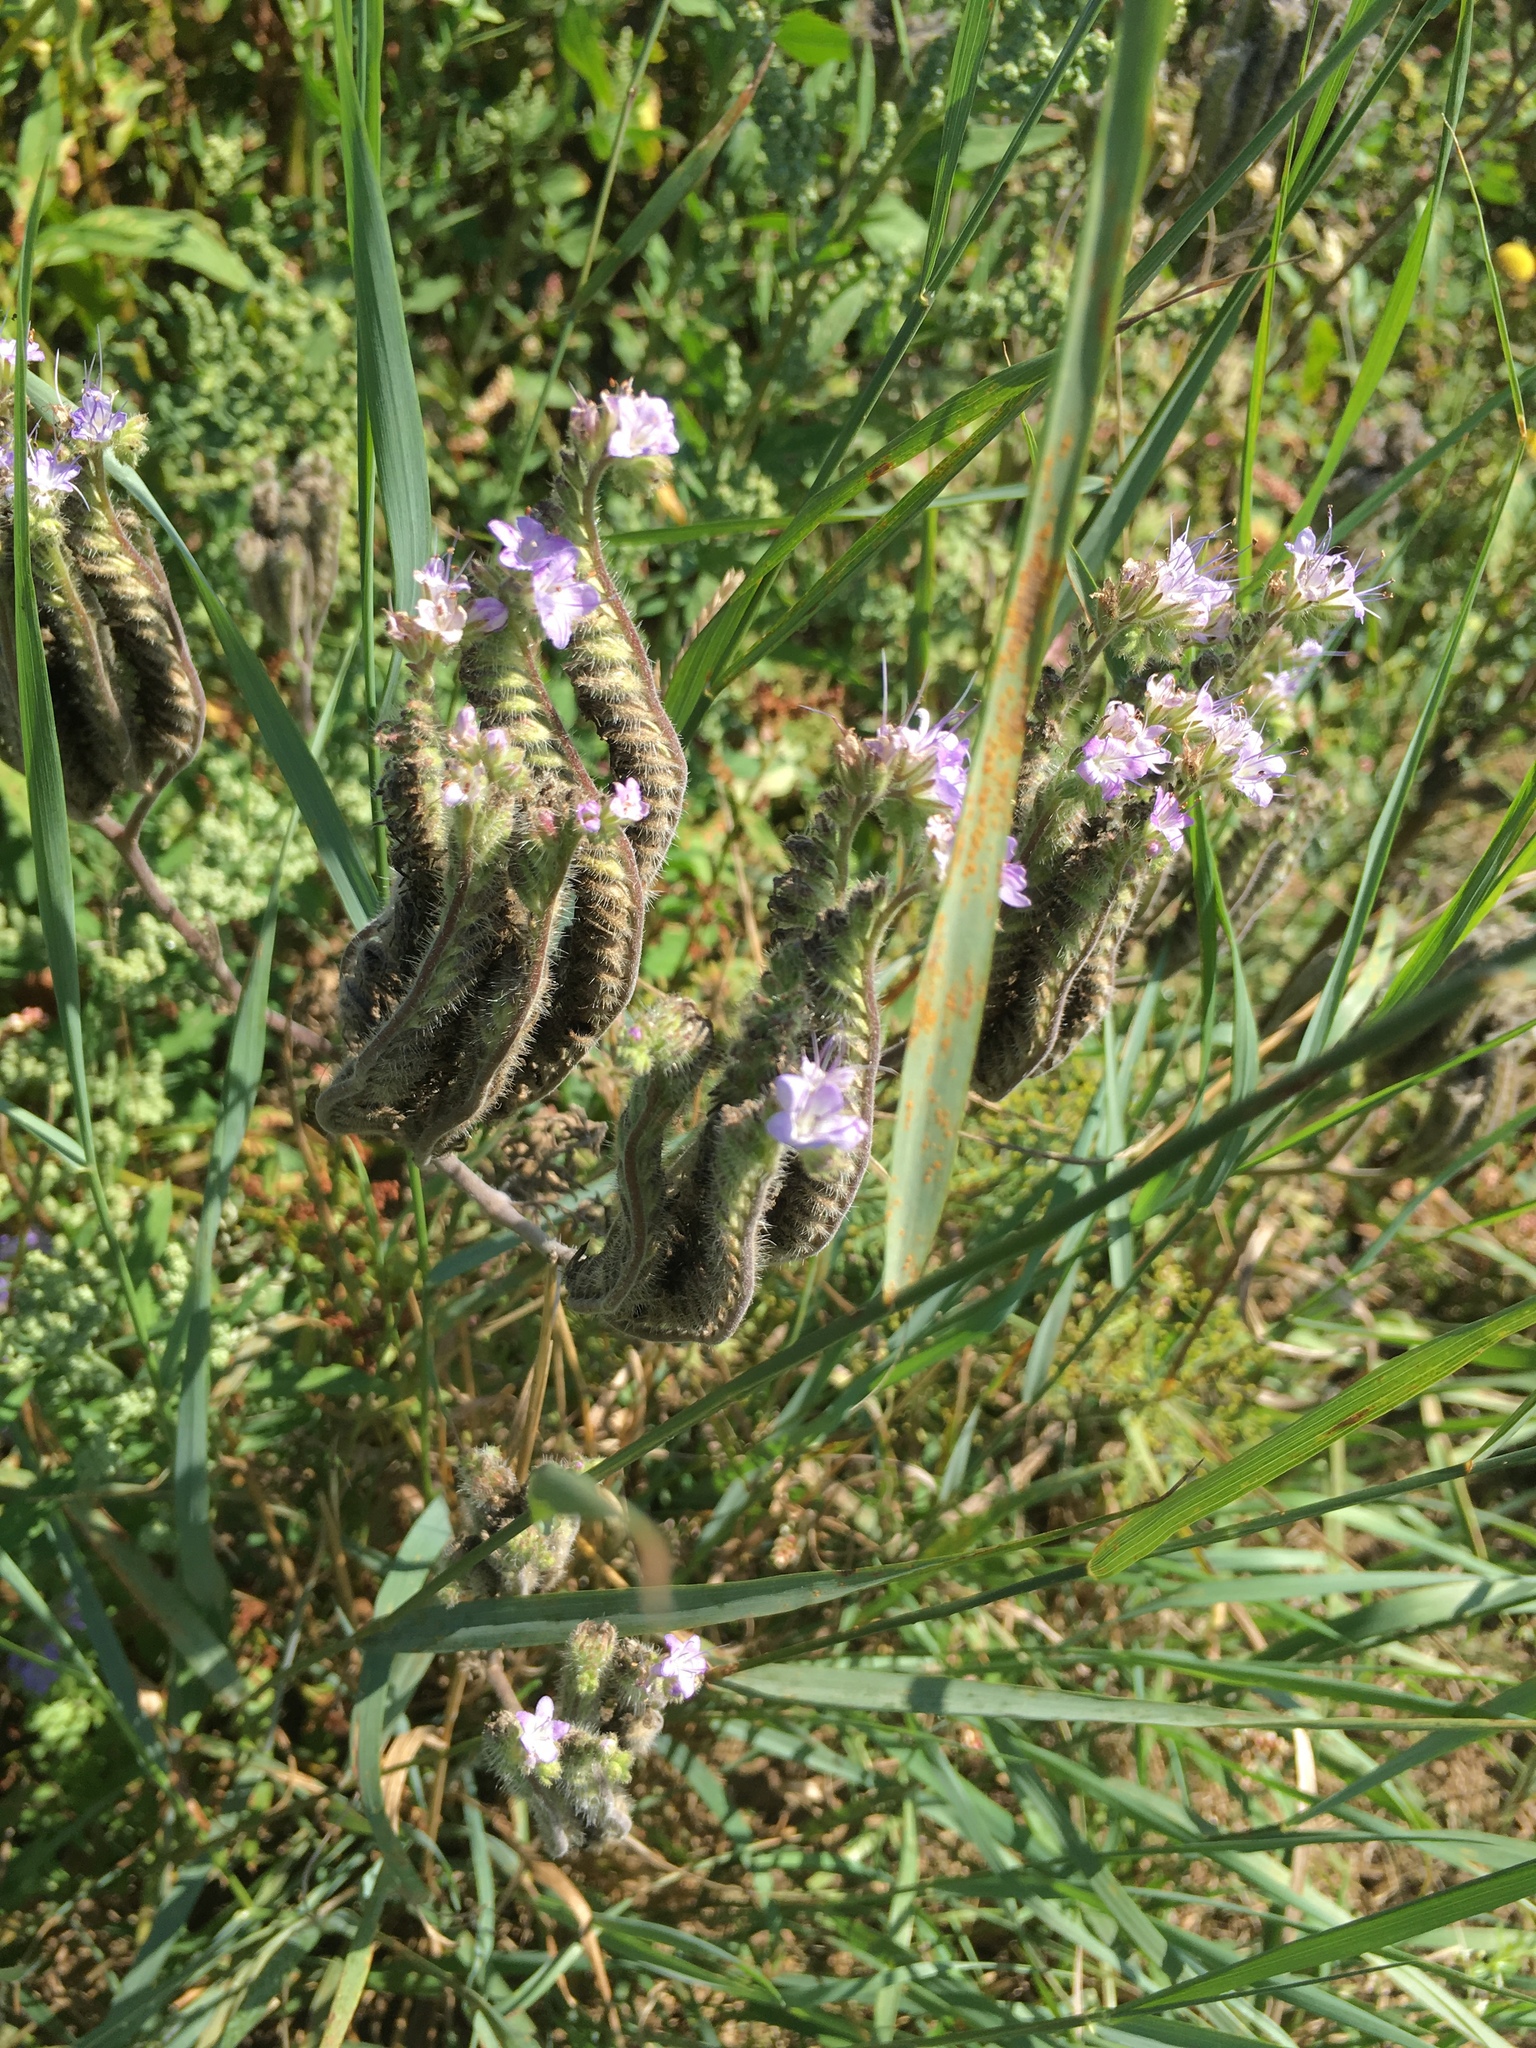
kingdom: Plantae
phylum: Tracheophyta
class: Magnoliopsida
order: Boraginales
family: Hydrophyllaceae
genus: Phacelia
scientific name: Phacelia tanacetifolia
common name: Phacelia
